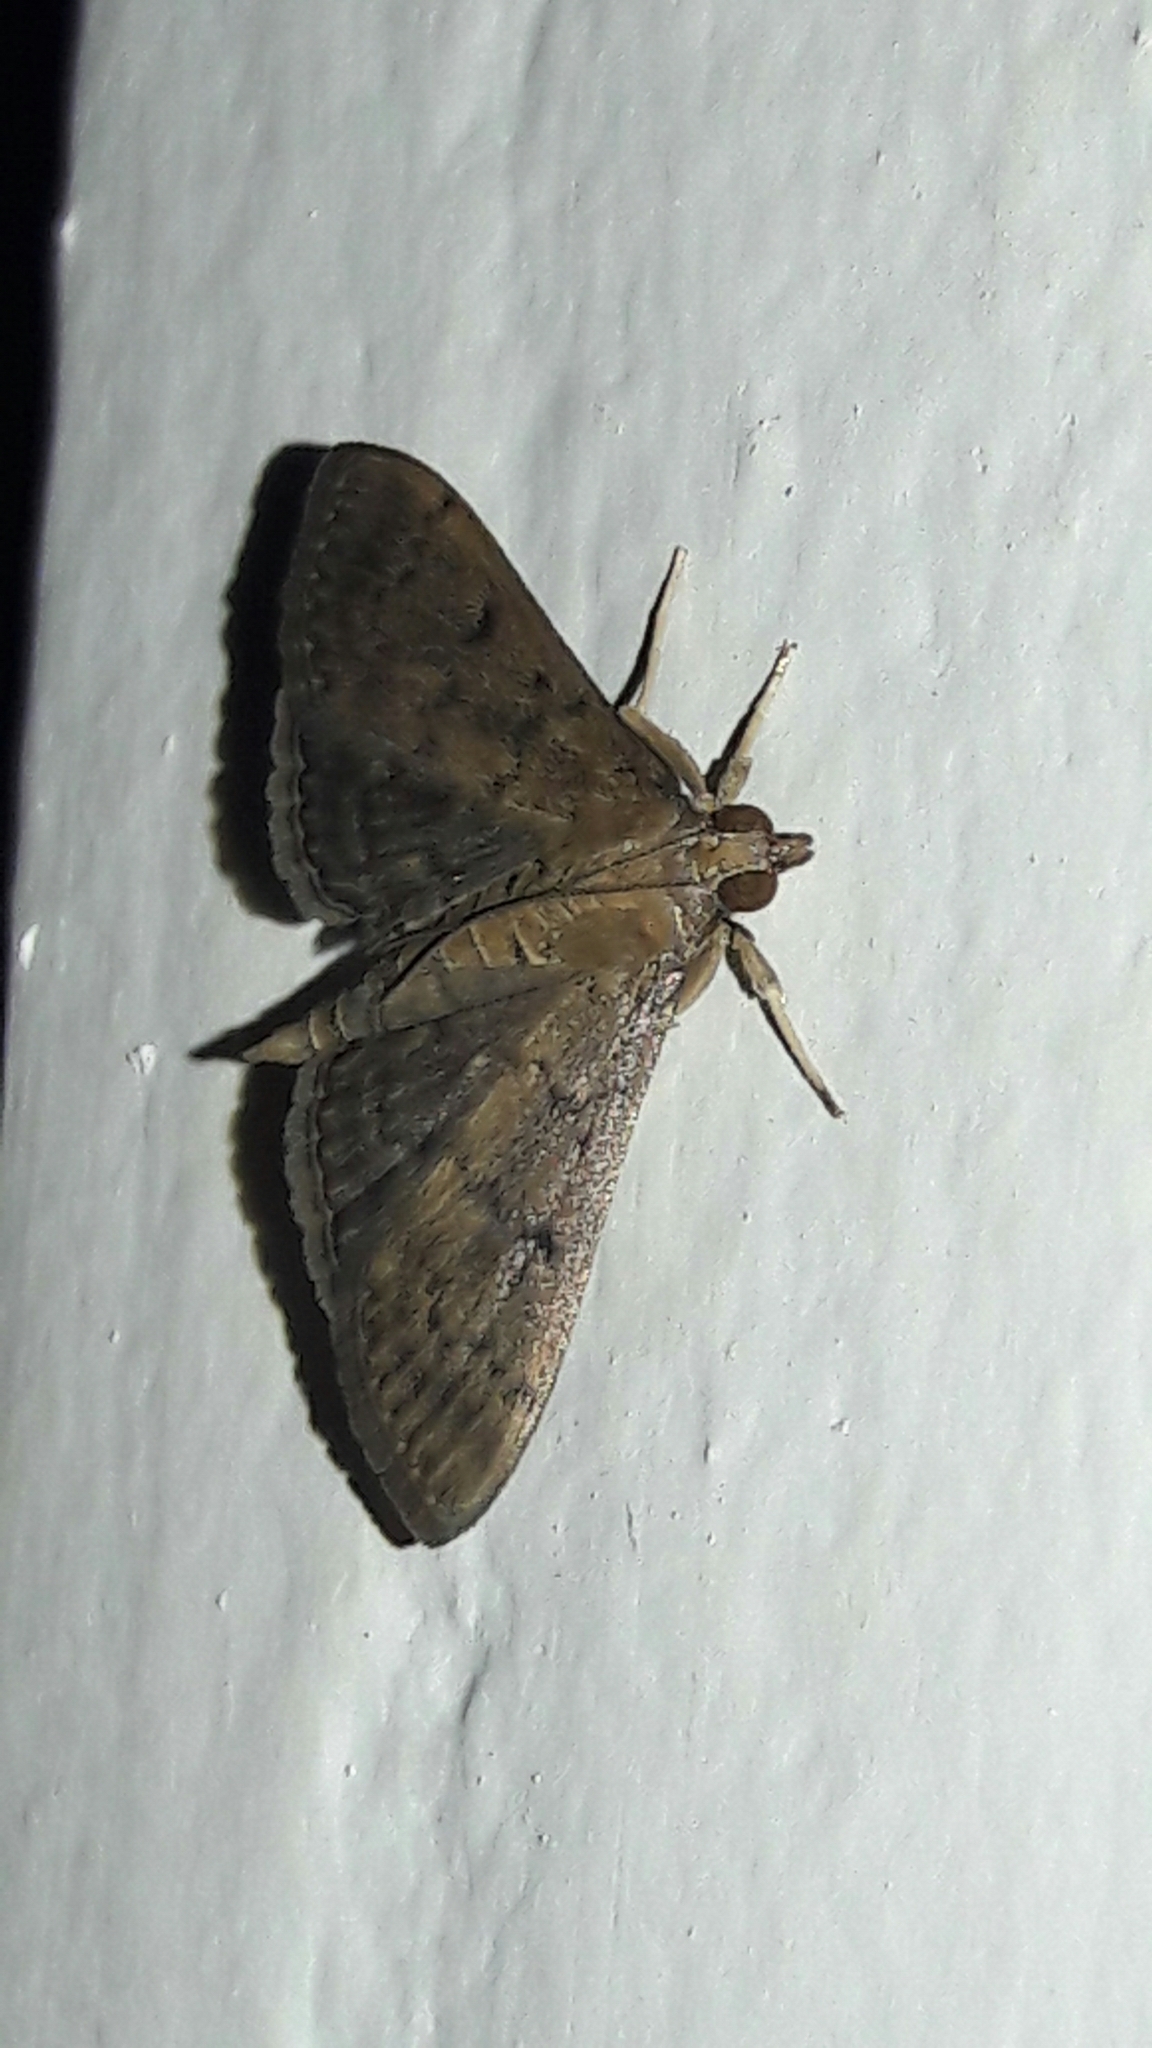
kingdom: Animalia
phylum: Arthropoda
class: Insecta
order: Lepidoptera
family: Crambidae
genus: Herpetogramma
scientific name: Herpetogramma phaeopteralis
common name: Dusky herpetogramma moth
